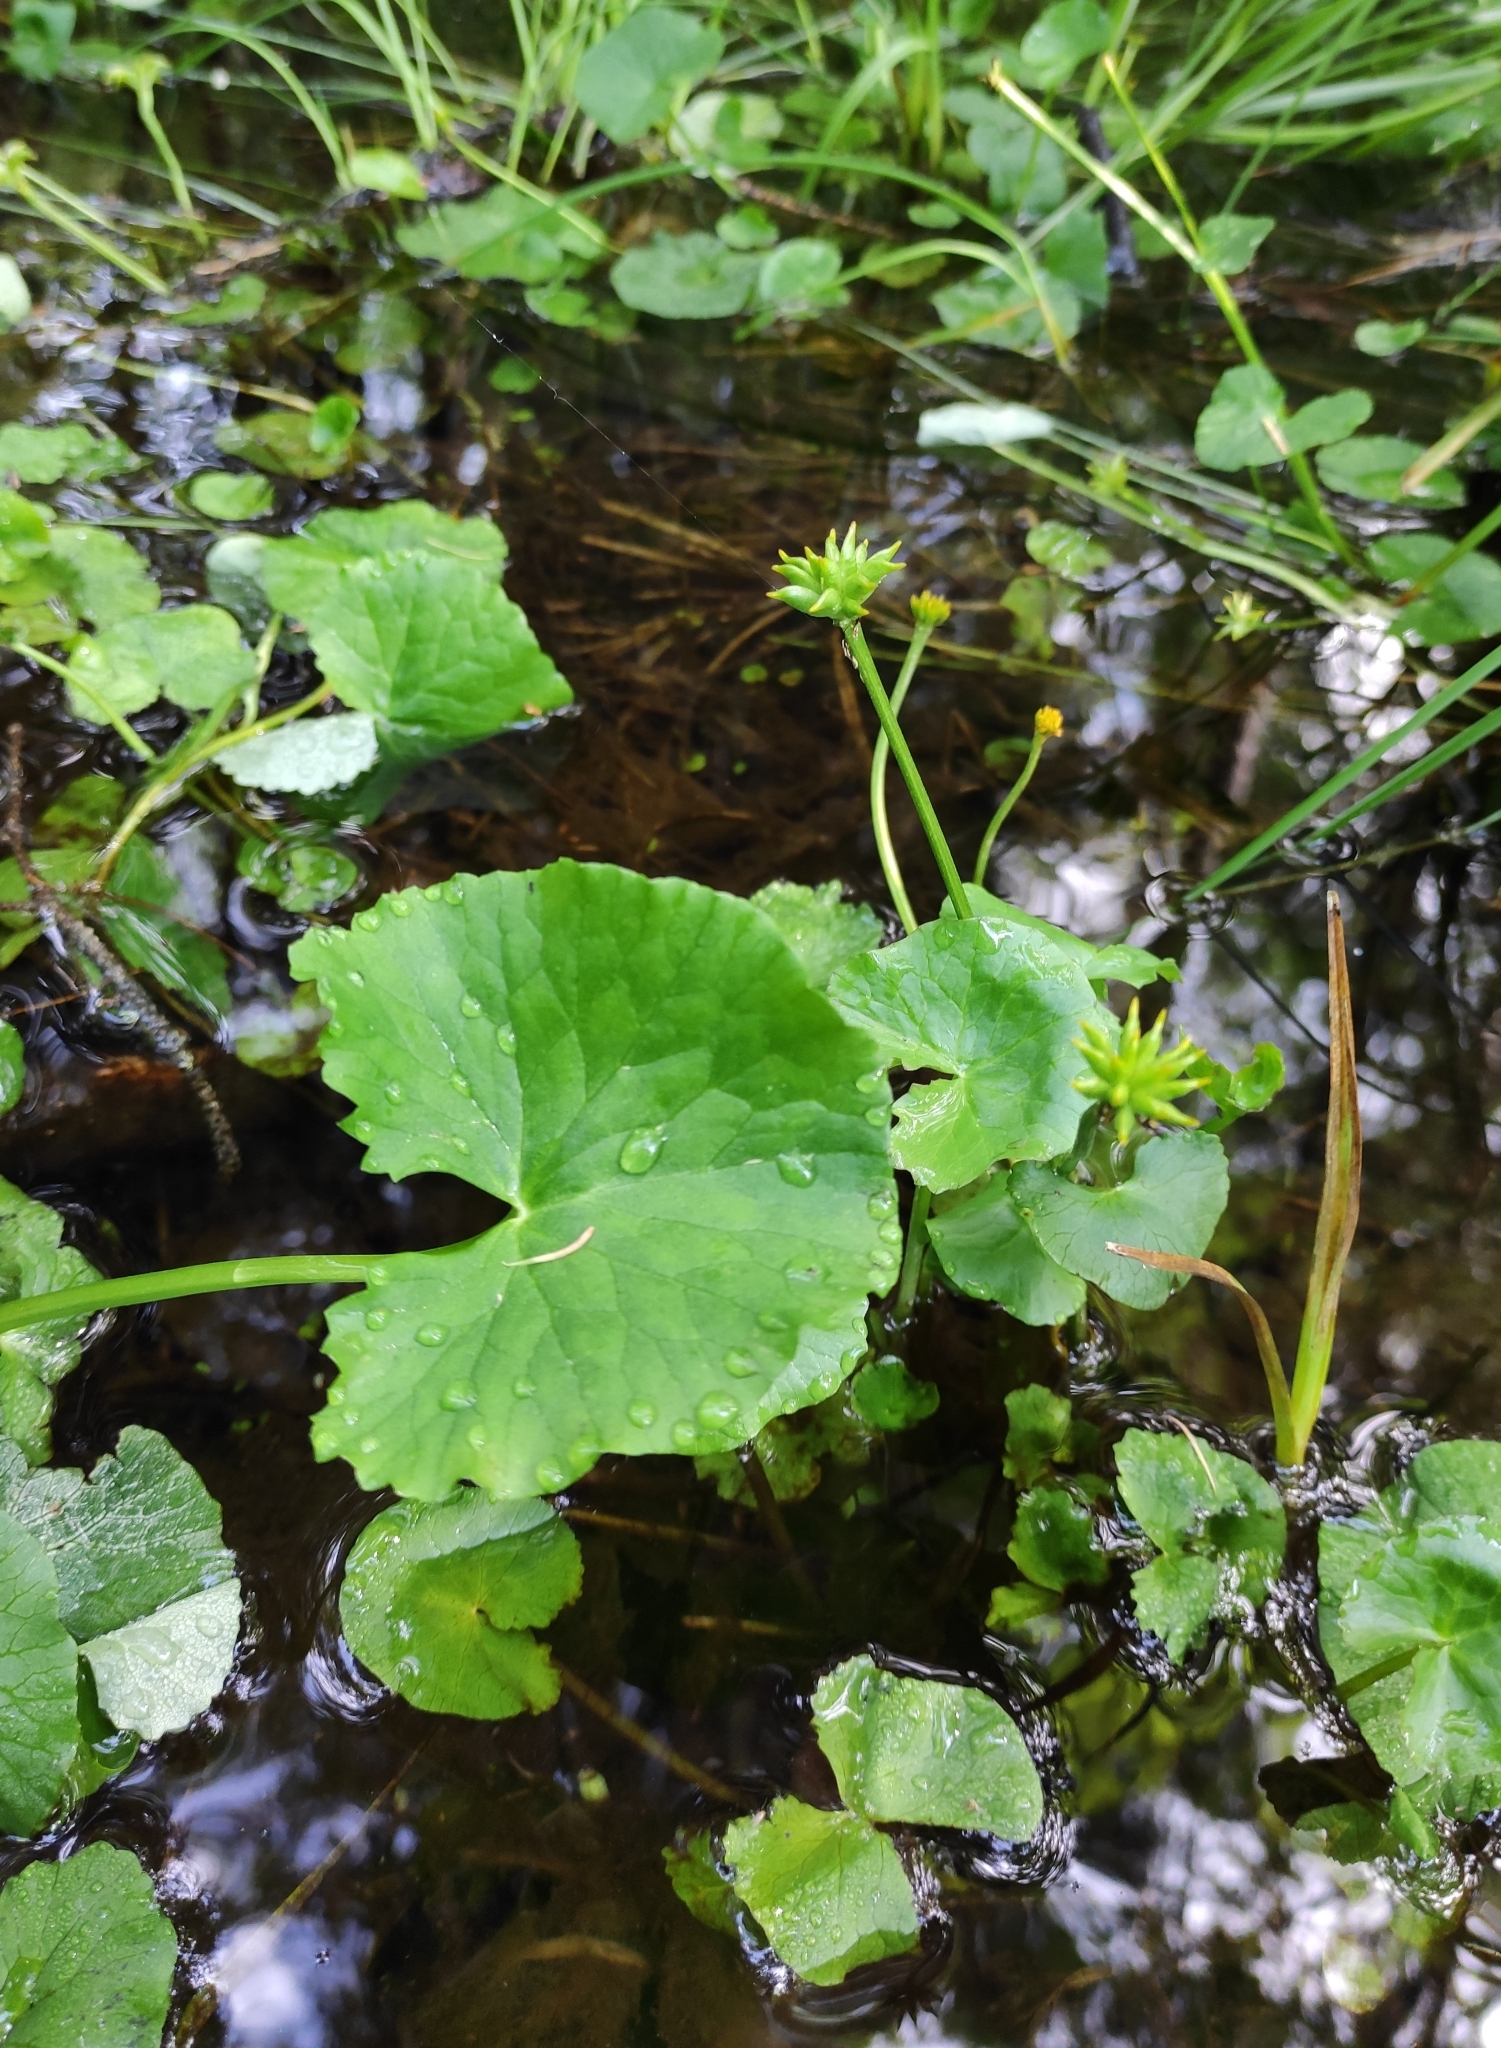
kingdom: Plantae
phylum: Tracheophyta
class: Magnoliopsida
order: Ranunculales
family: Ranunculaceae
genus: Caltha
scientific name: Caltha palustris
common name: Marsh marigold
